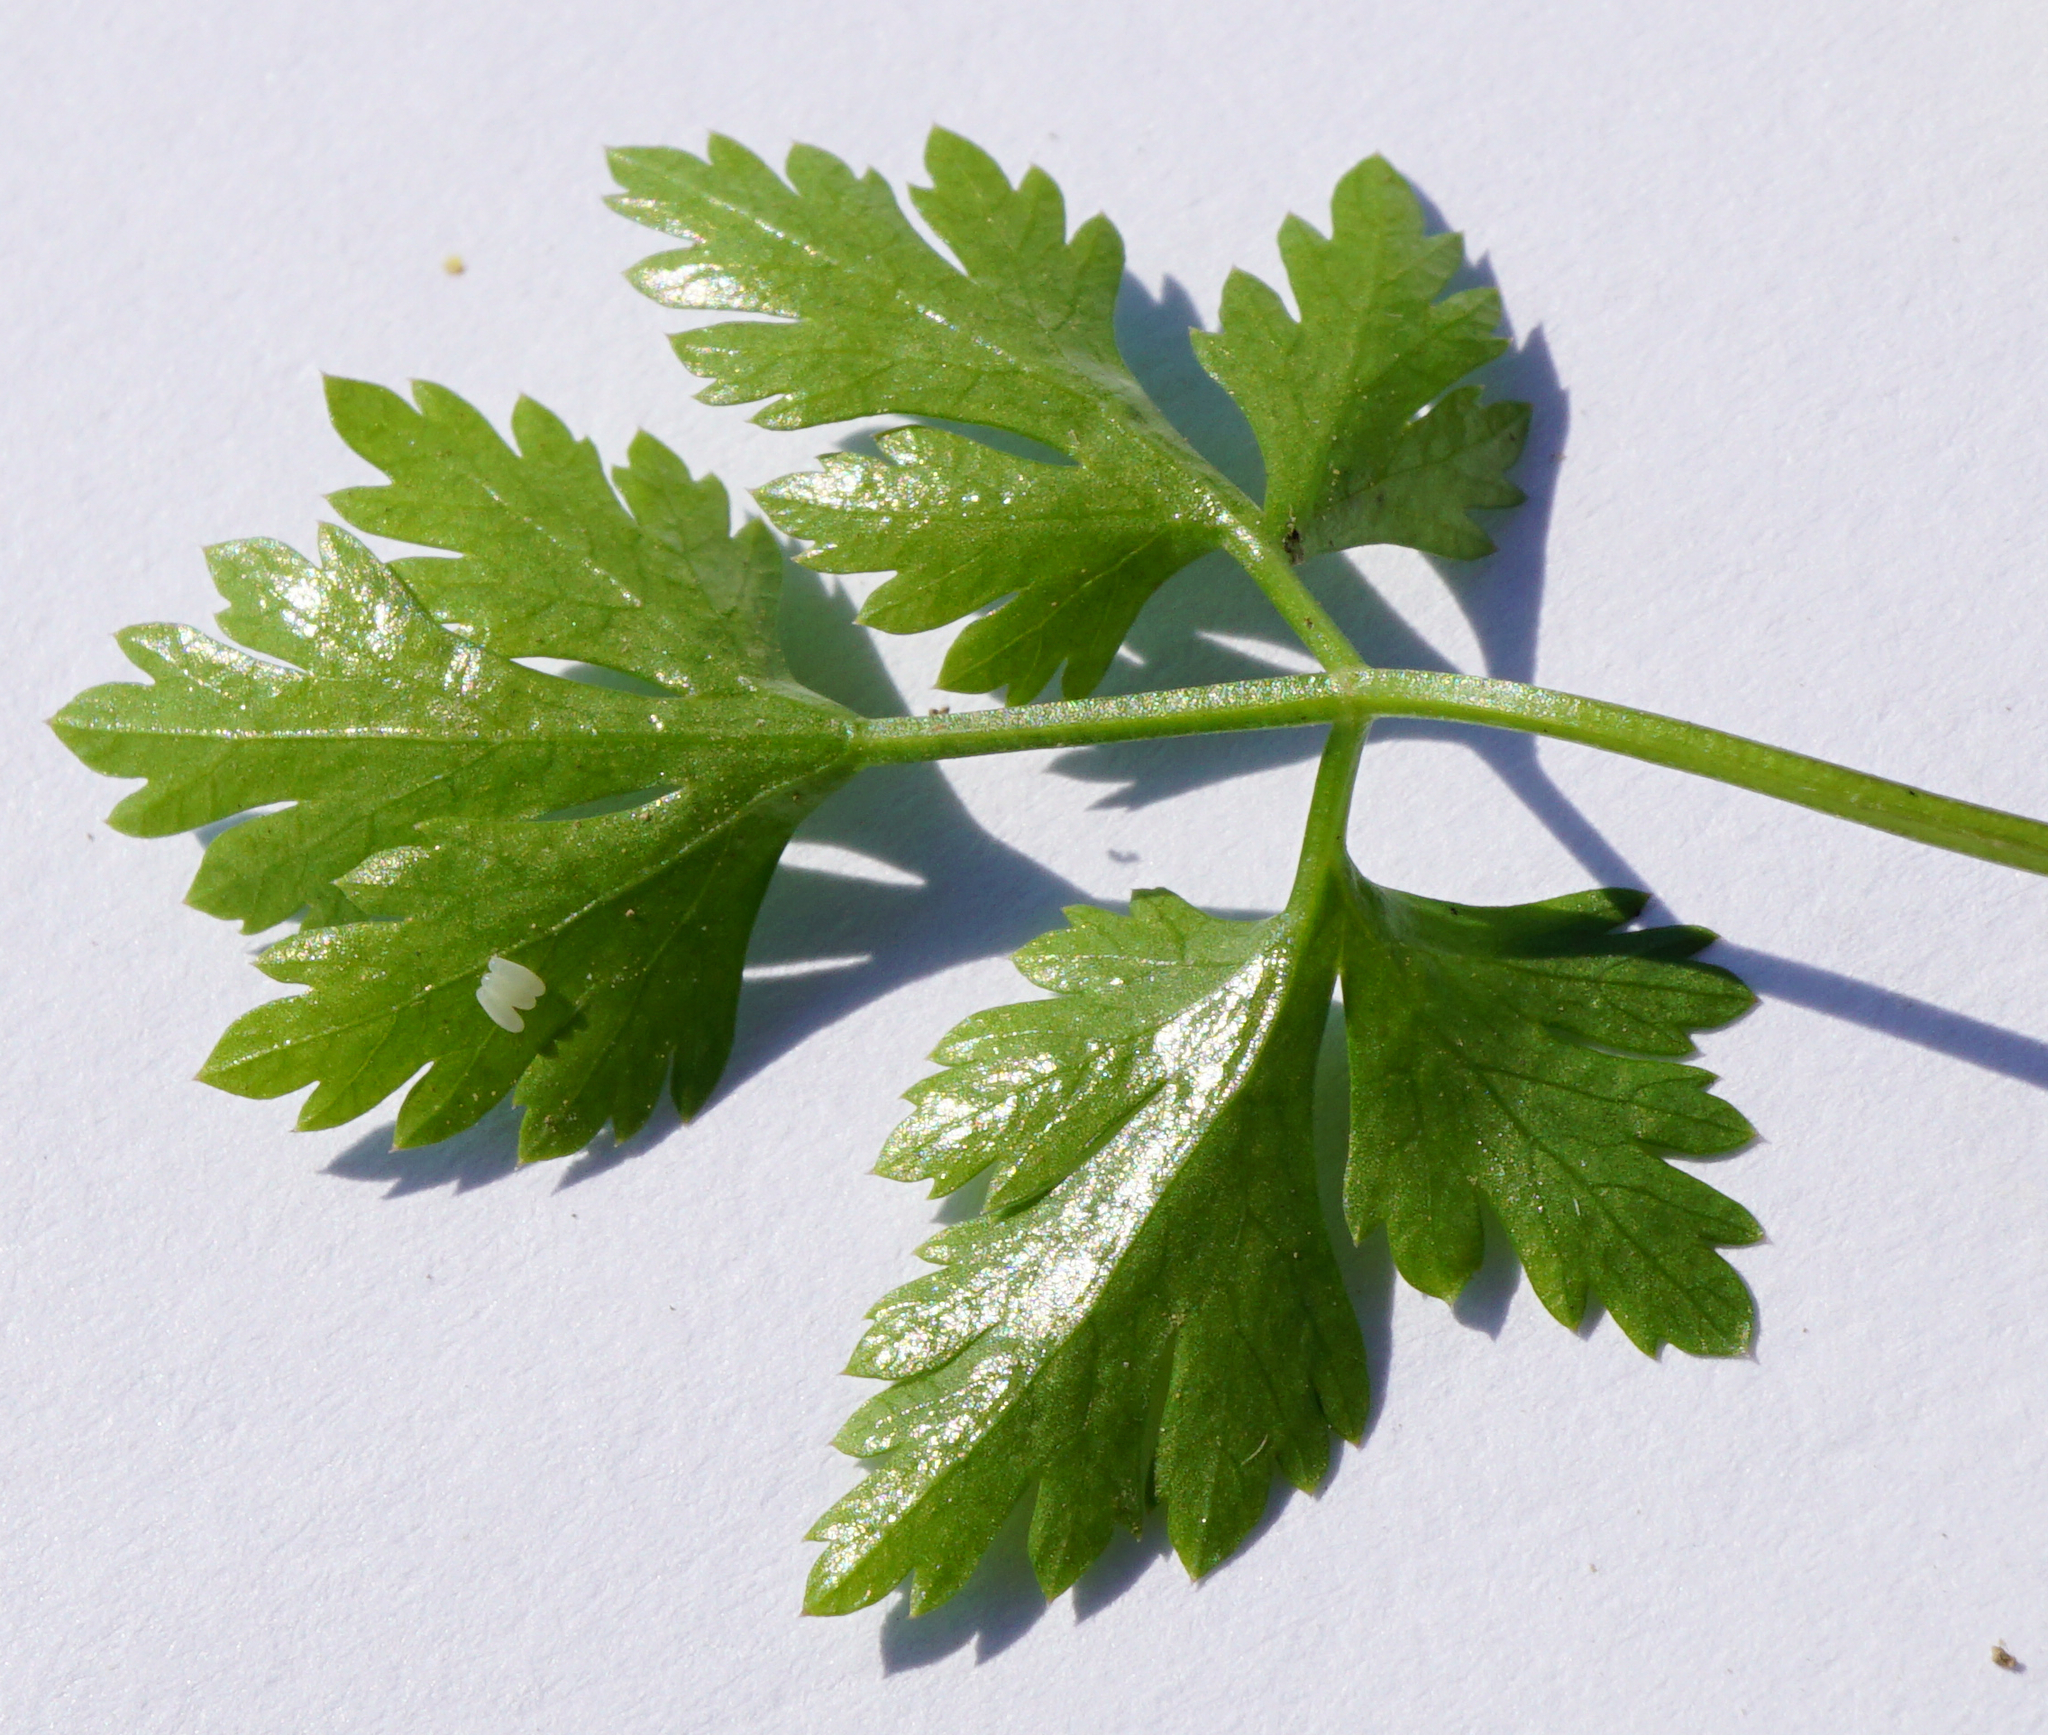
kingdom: Plantae
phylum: Tracheophyta
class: Magnoliopsida
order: Apiales
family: Apiaceae
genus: Aethusa
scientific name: Aethusa cynapium
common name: Fool's parsley
